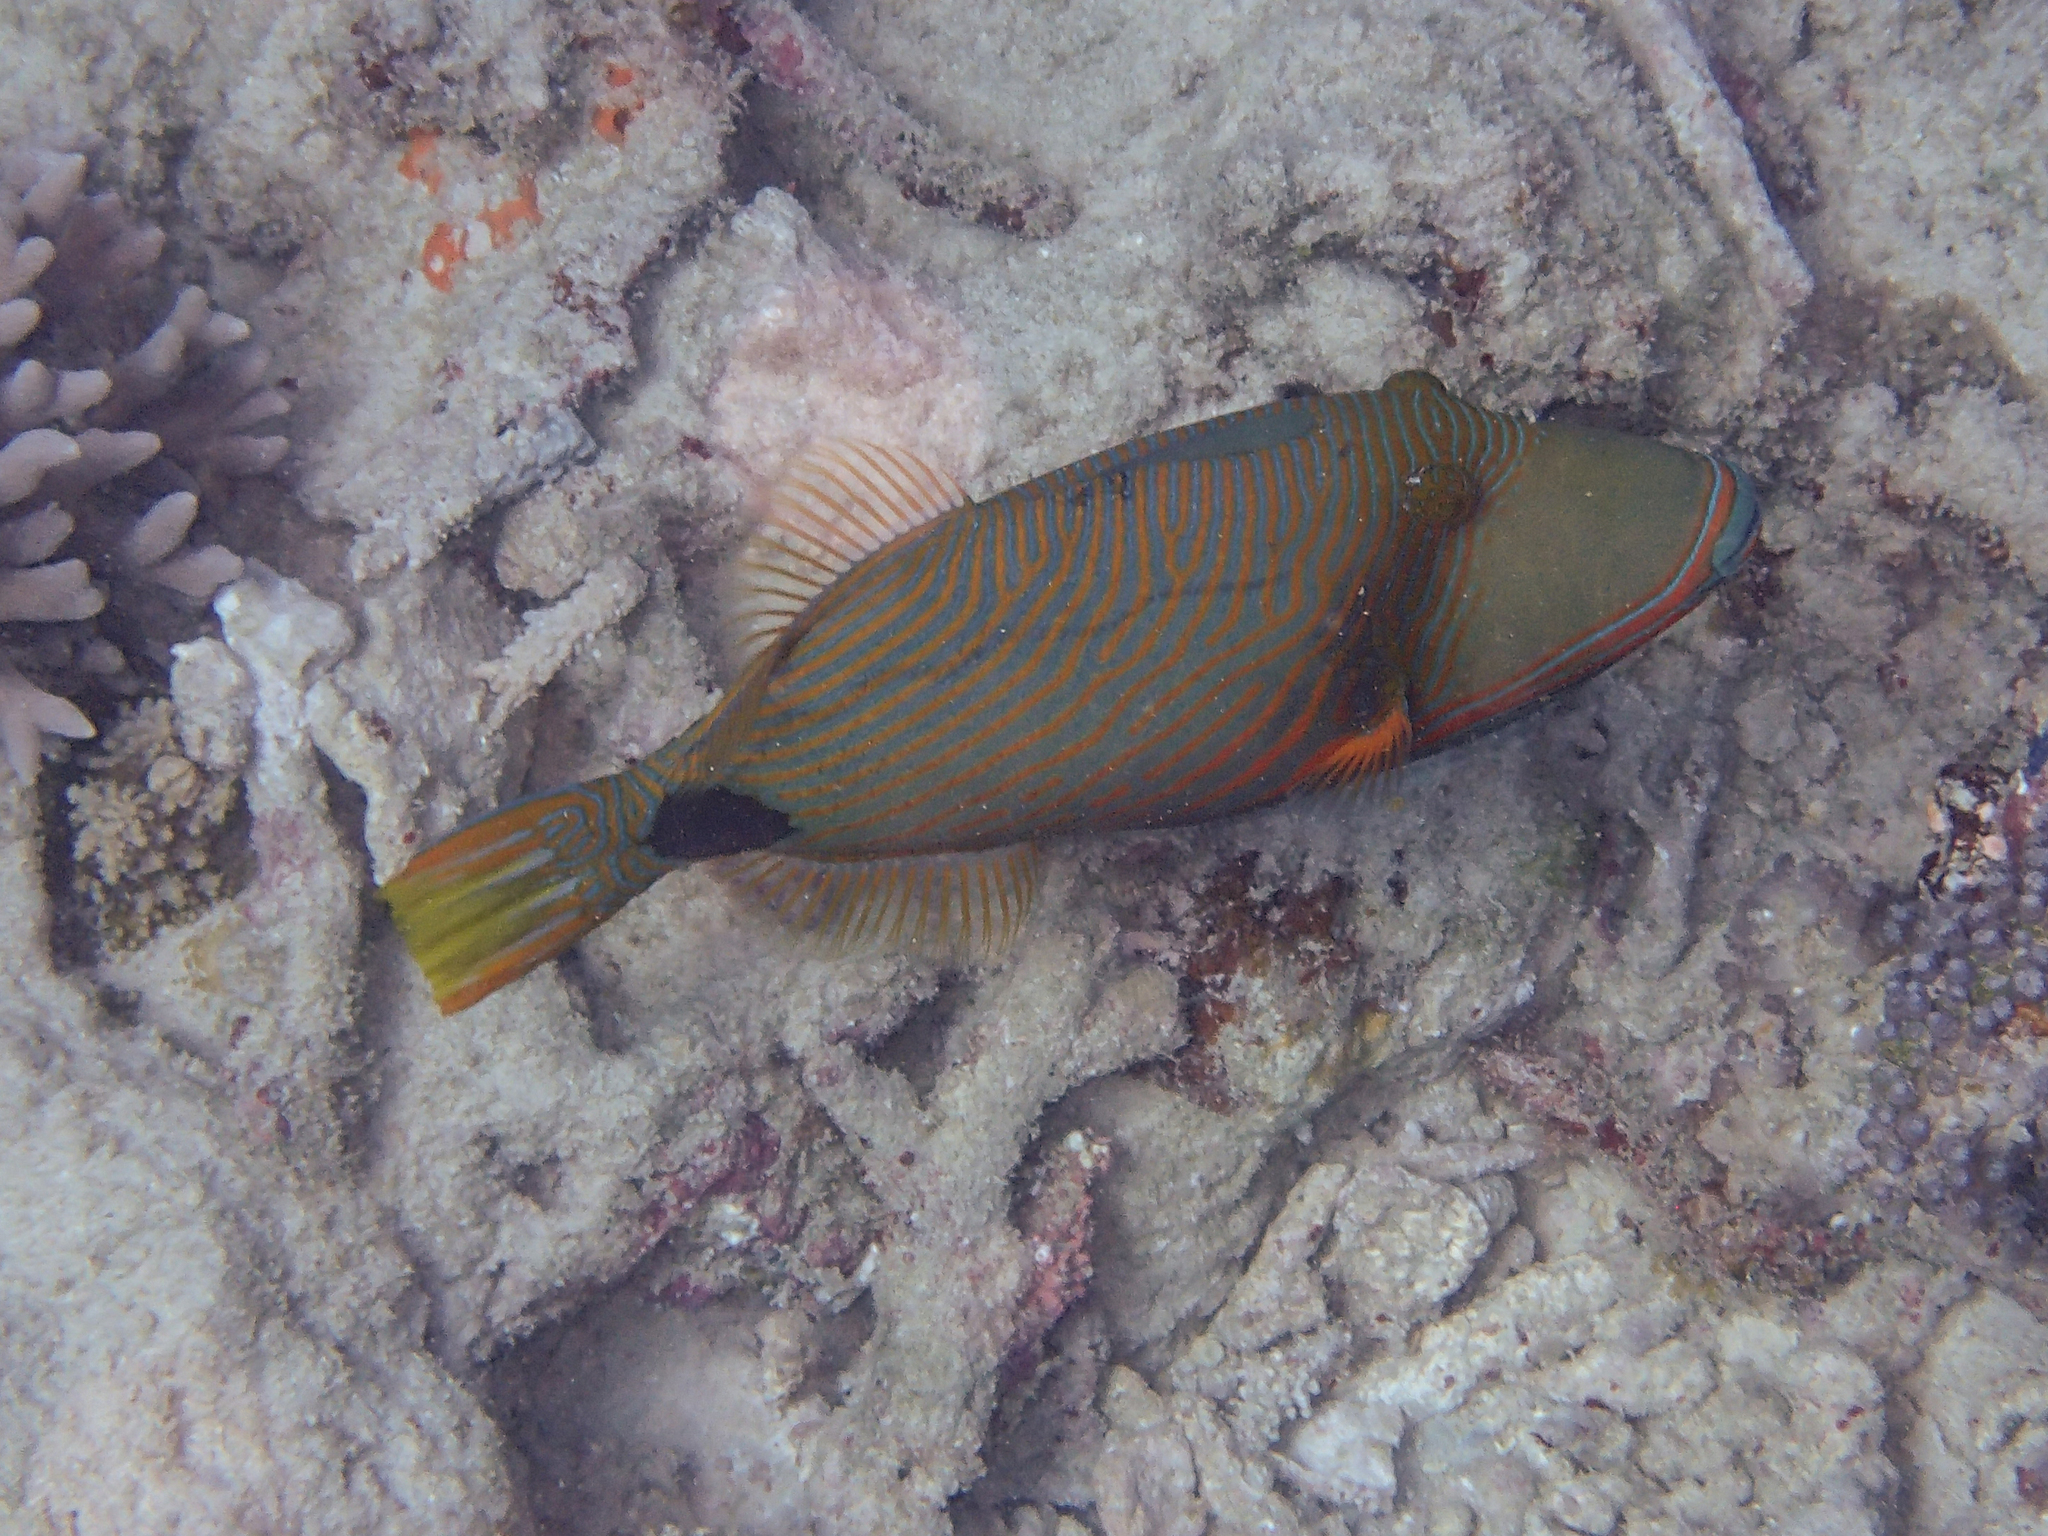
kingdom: Animalia
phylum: Chordata
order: Tetraodontiformes
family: Balistidae
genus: Balistapus
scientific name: Balistapus undulatus
